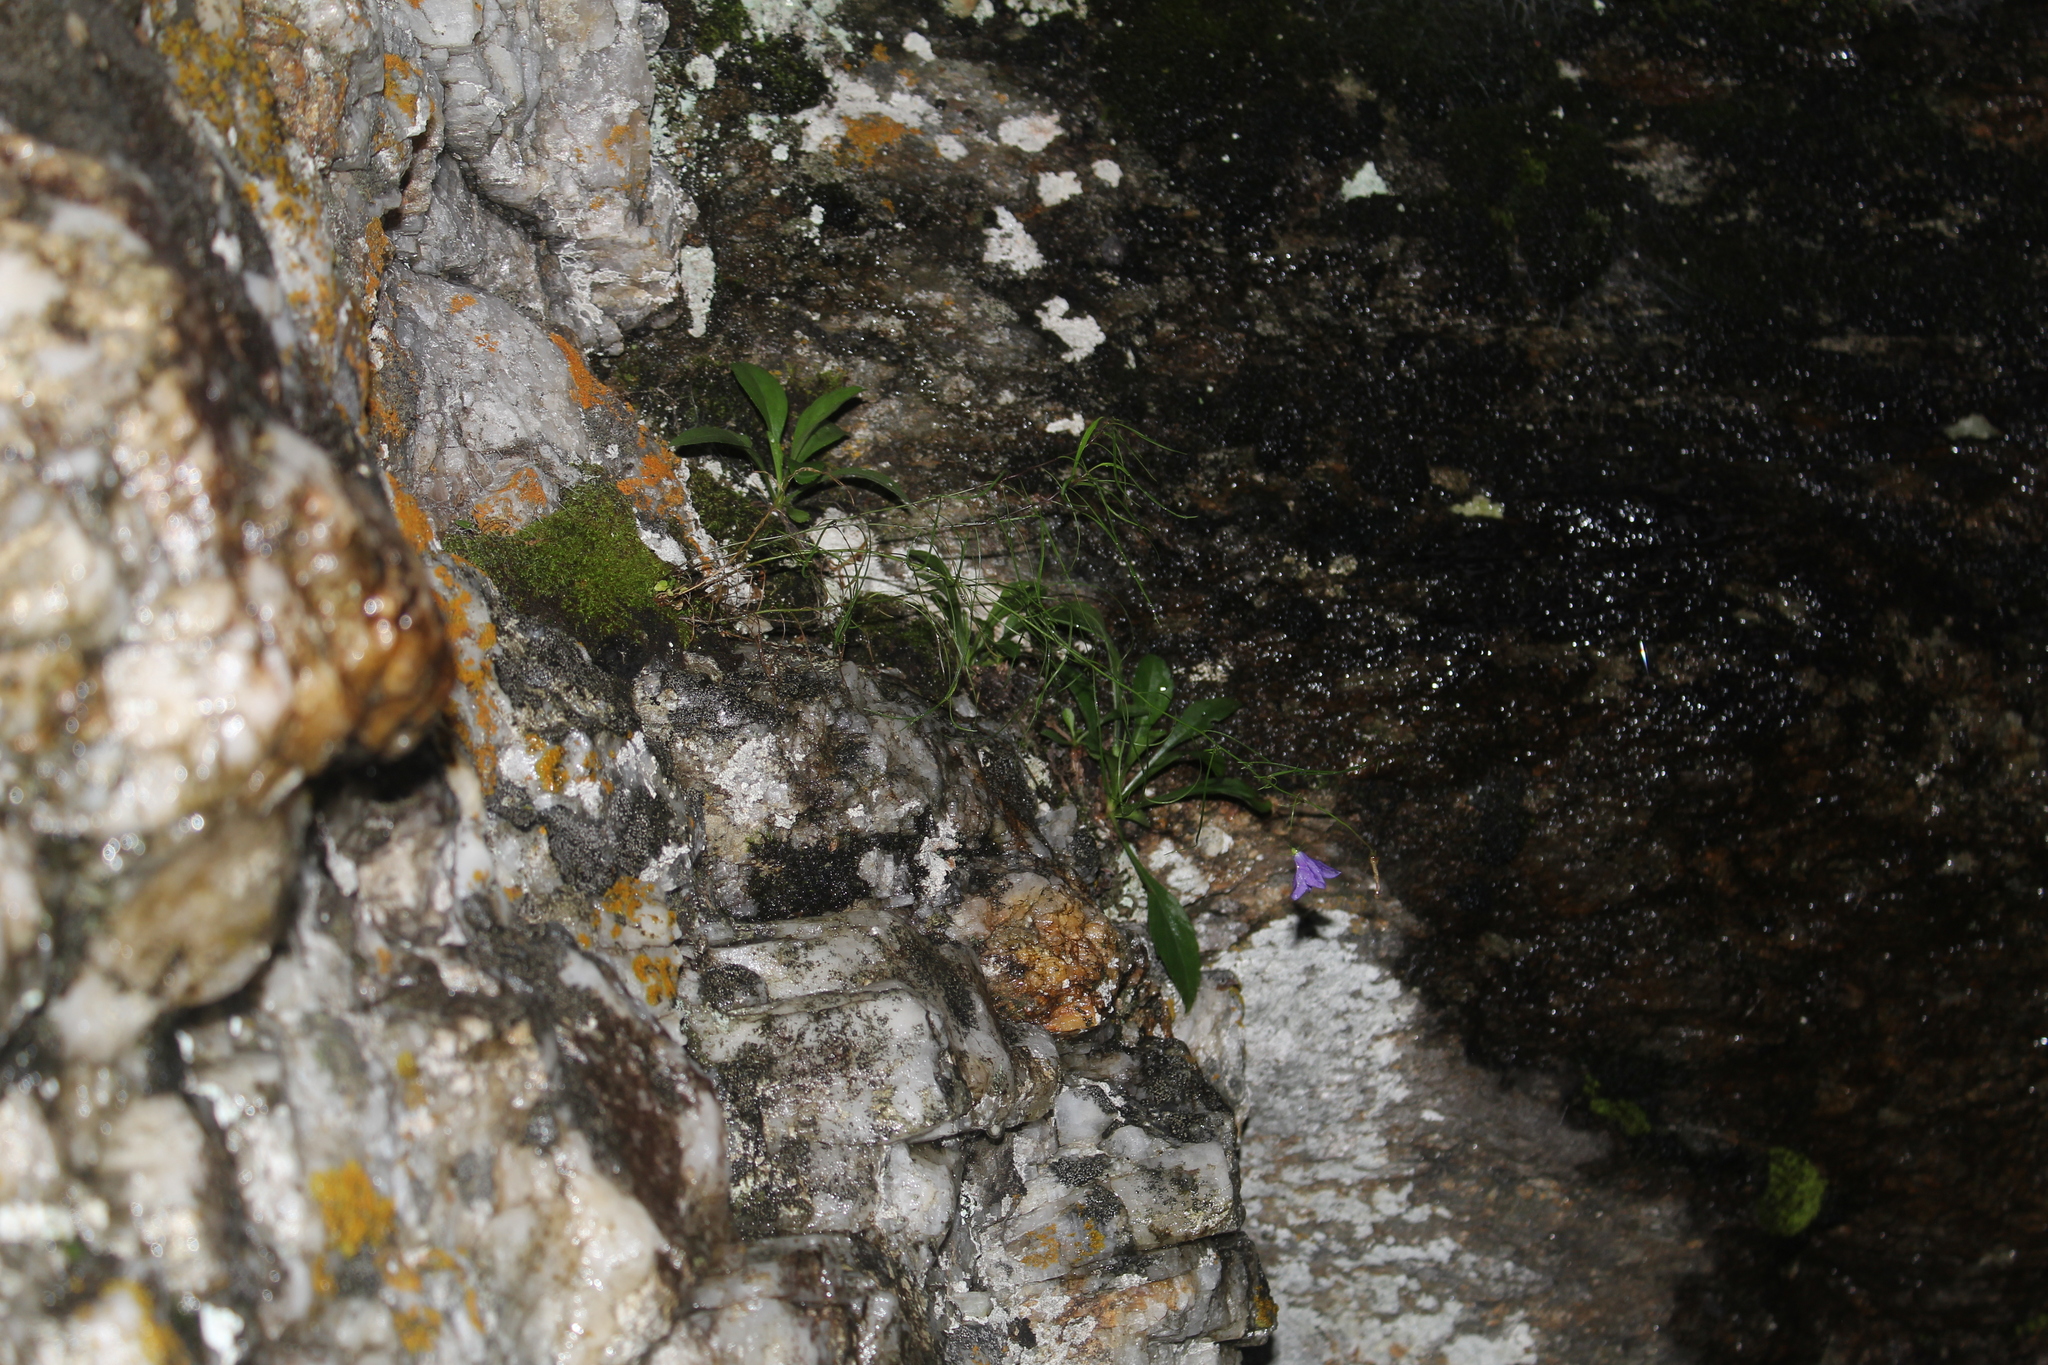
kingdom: Plantae
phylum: Tracheophyta
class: Magnoliopsida
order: Asterales
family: Campanulaceae
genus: Campanula
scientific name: Campanula intercedens
